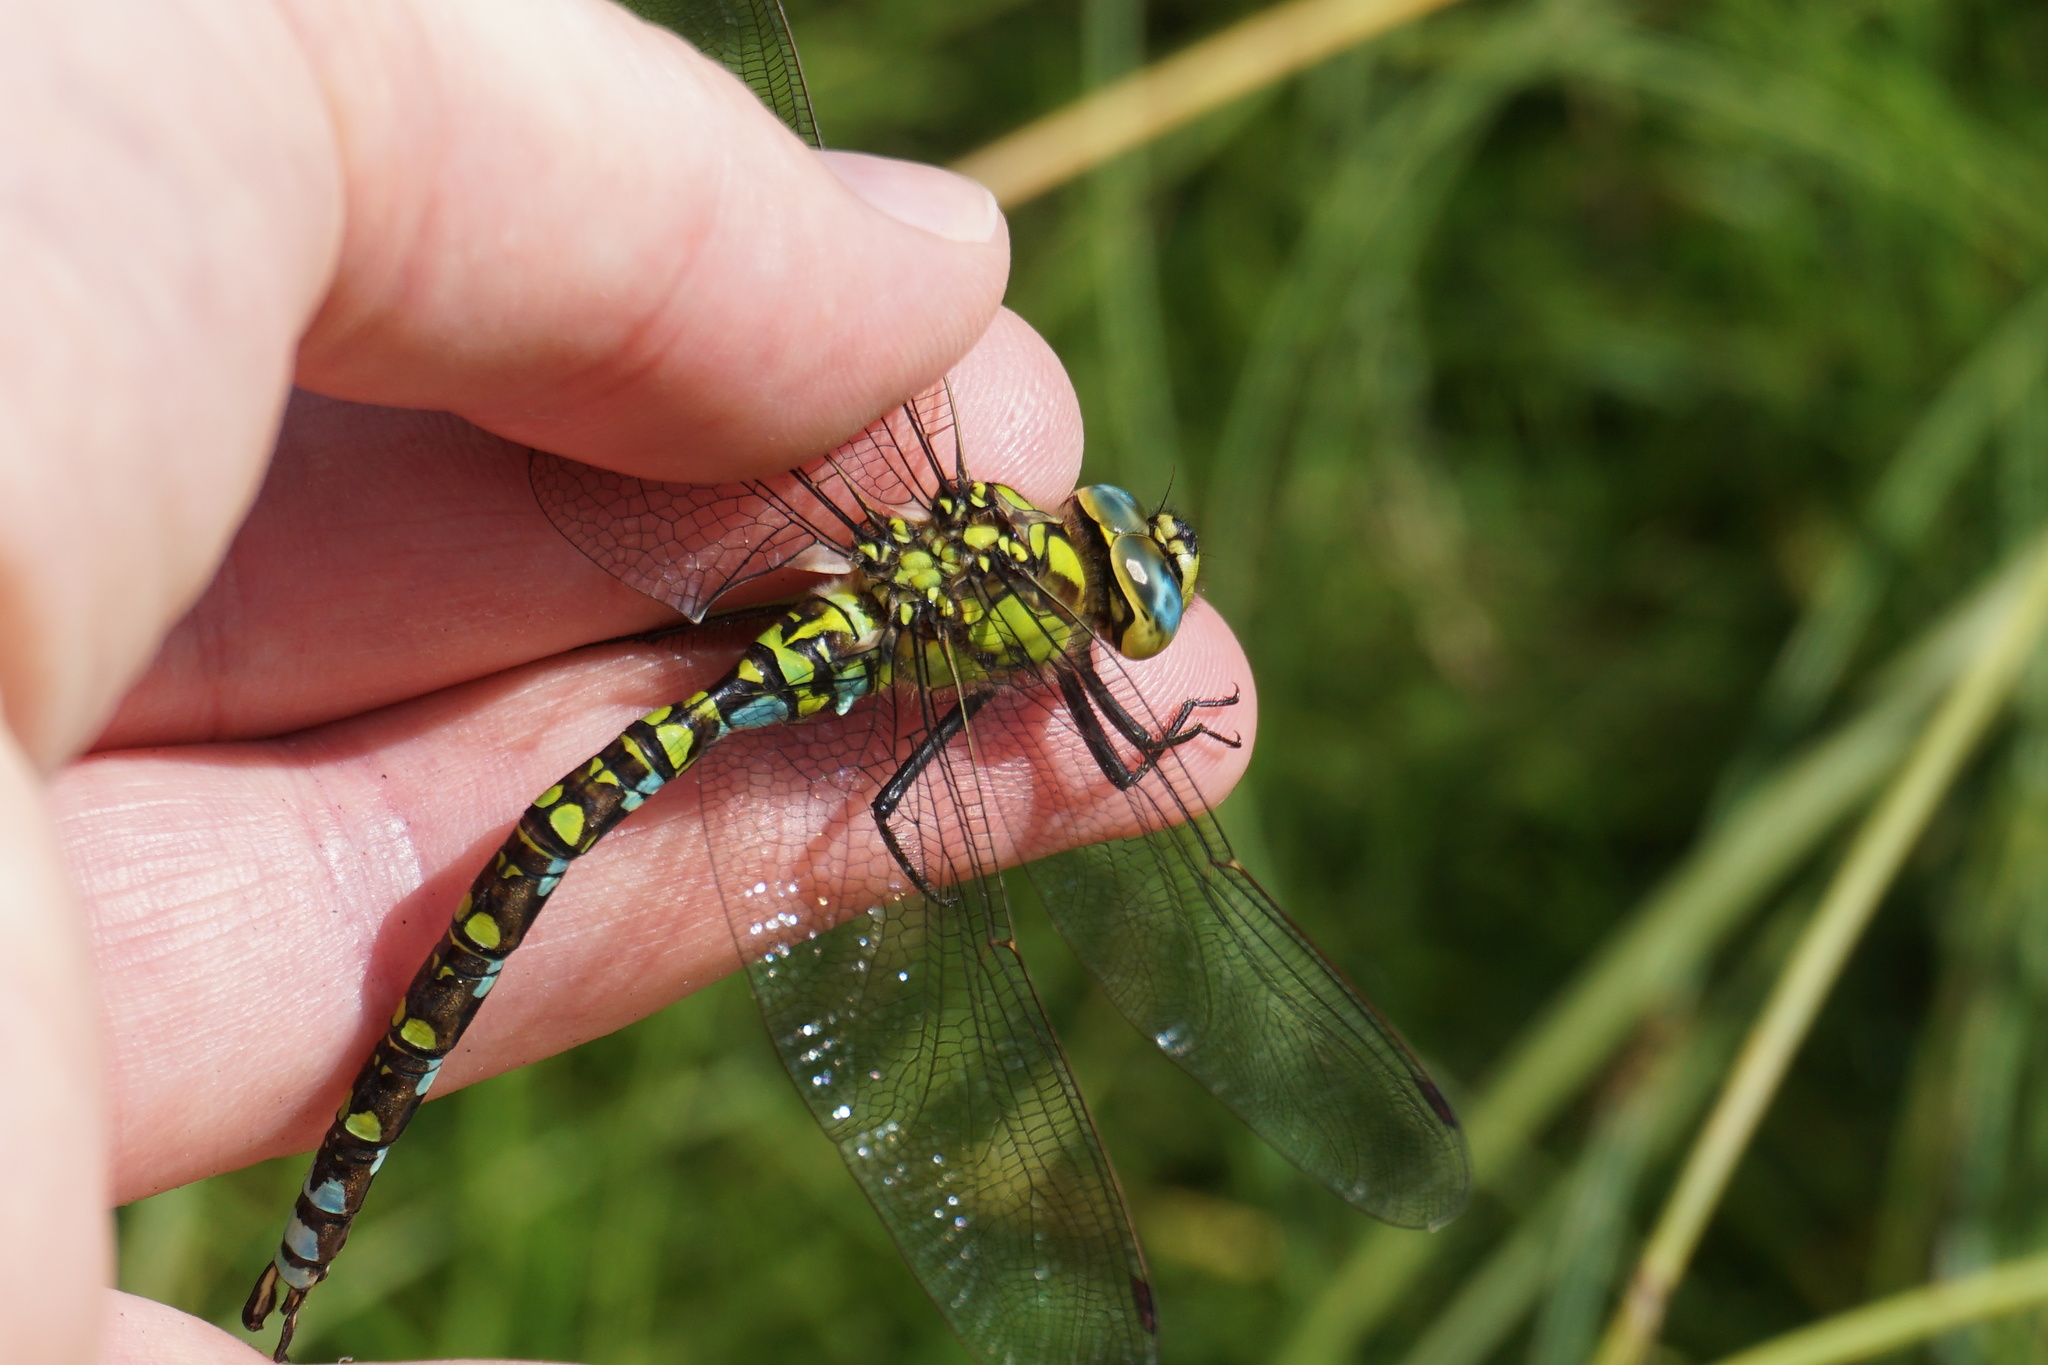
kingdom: Animalia
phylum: Arthropoda
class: Insecta
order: Odonata
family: Aeshnidae
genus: Aeshna
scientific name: Aeshna cyanea
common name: Southern hawker
